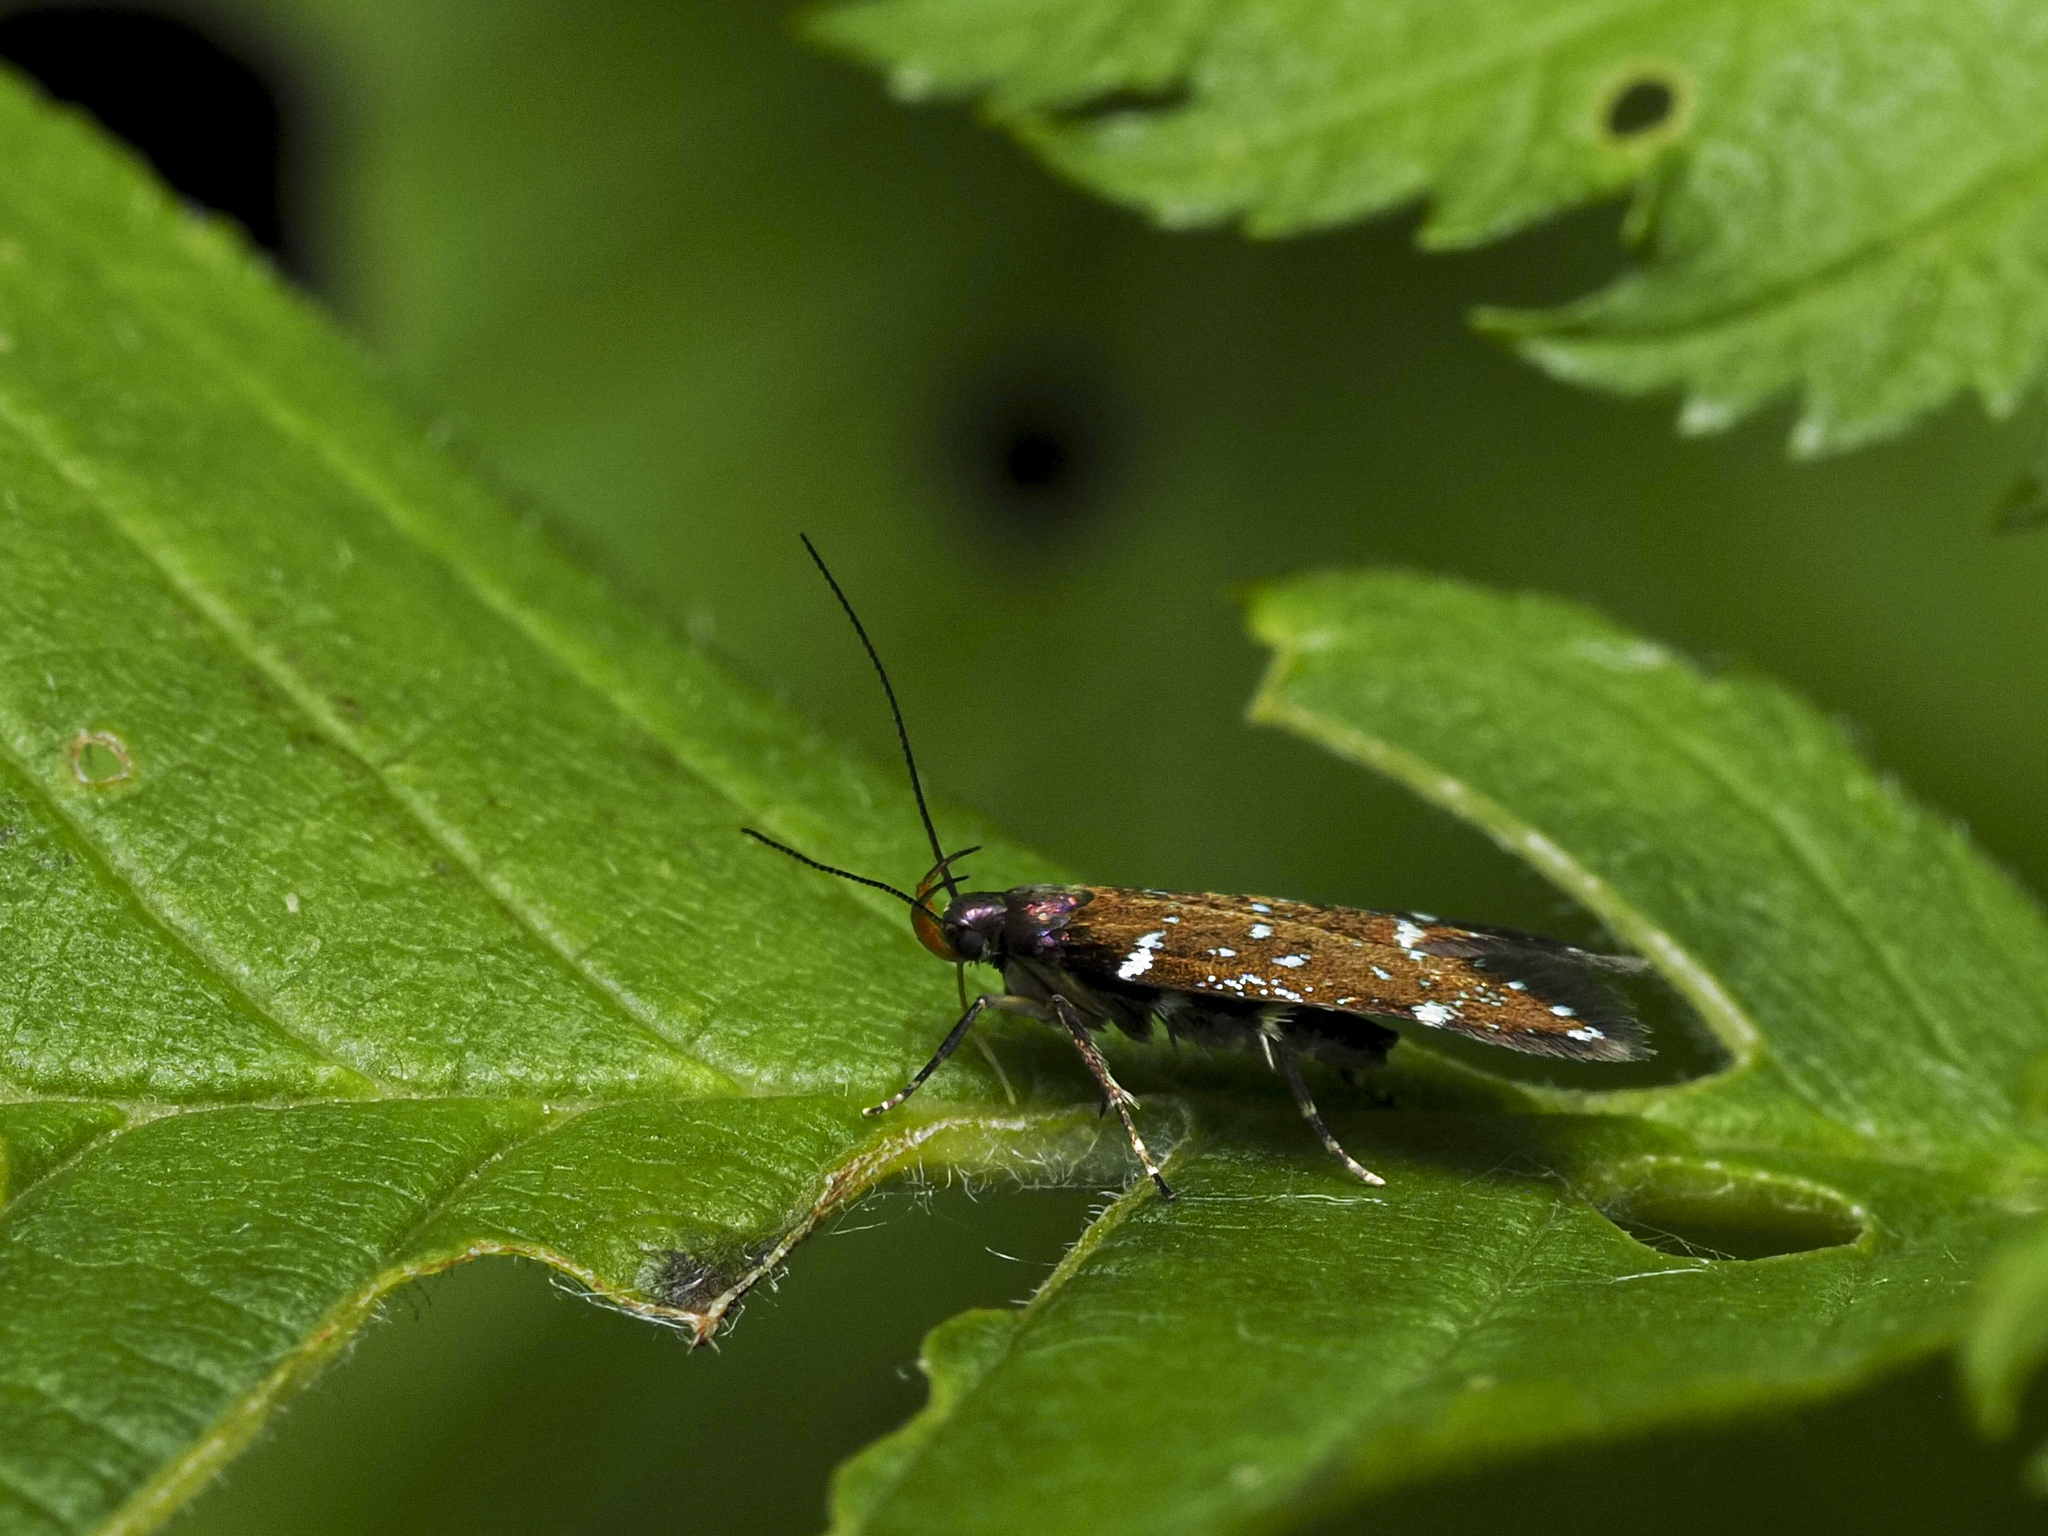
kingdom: Animalia
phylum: Arthropoda
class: Insecta
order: Lepidoptera
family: Gelechiidae
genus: Argolamprotes
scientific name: Argolamprotes micella
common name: Bright neb
